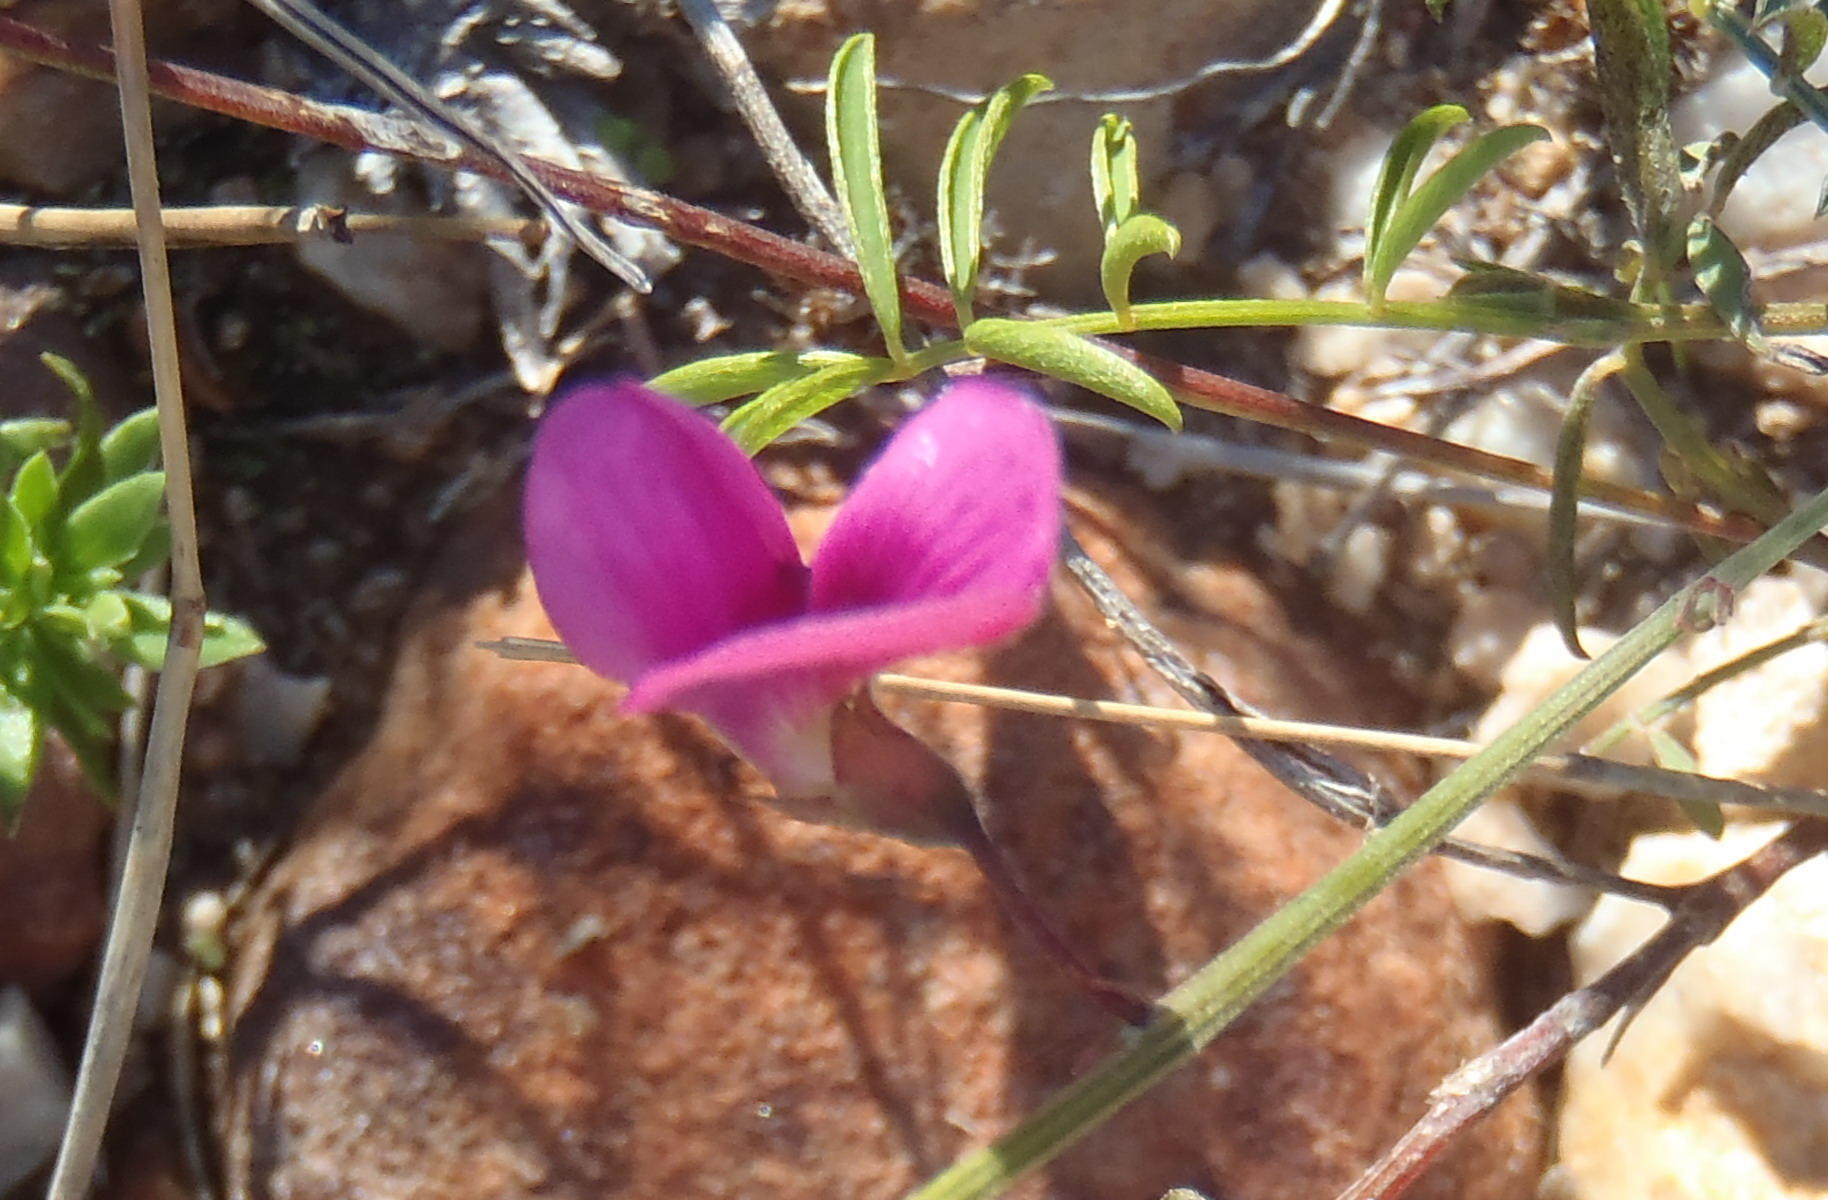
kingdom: Plantae
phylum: Tracheophyta
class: Magnoliopsida
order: Fabales
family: Fabaceae
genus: Tephrosia
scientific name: Tephrosia capensis
